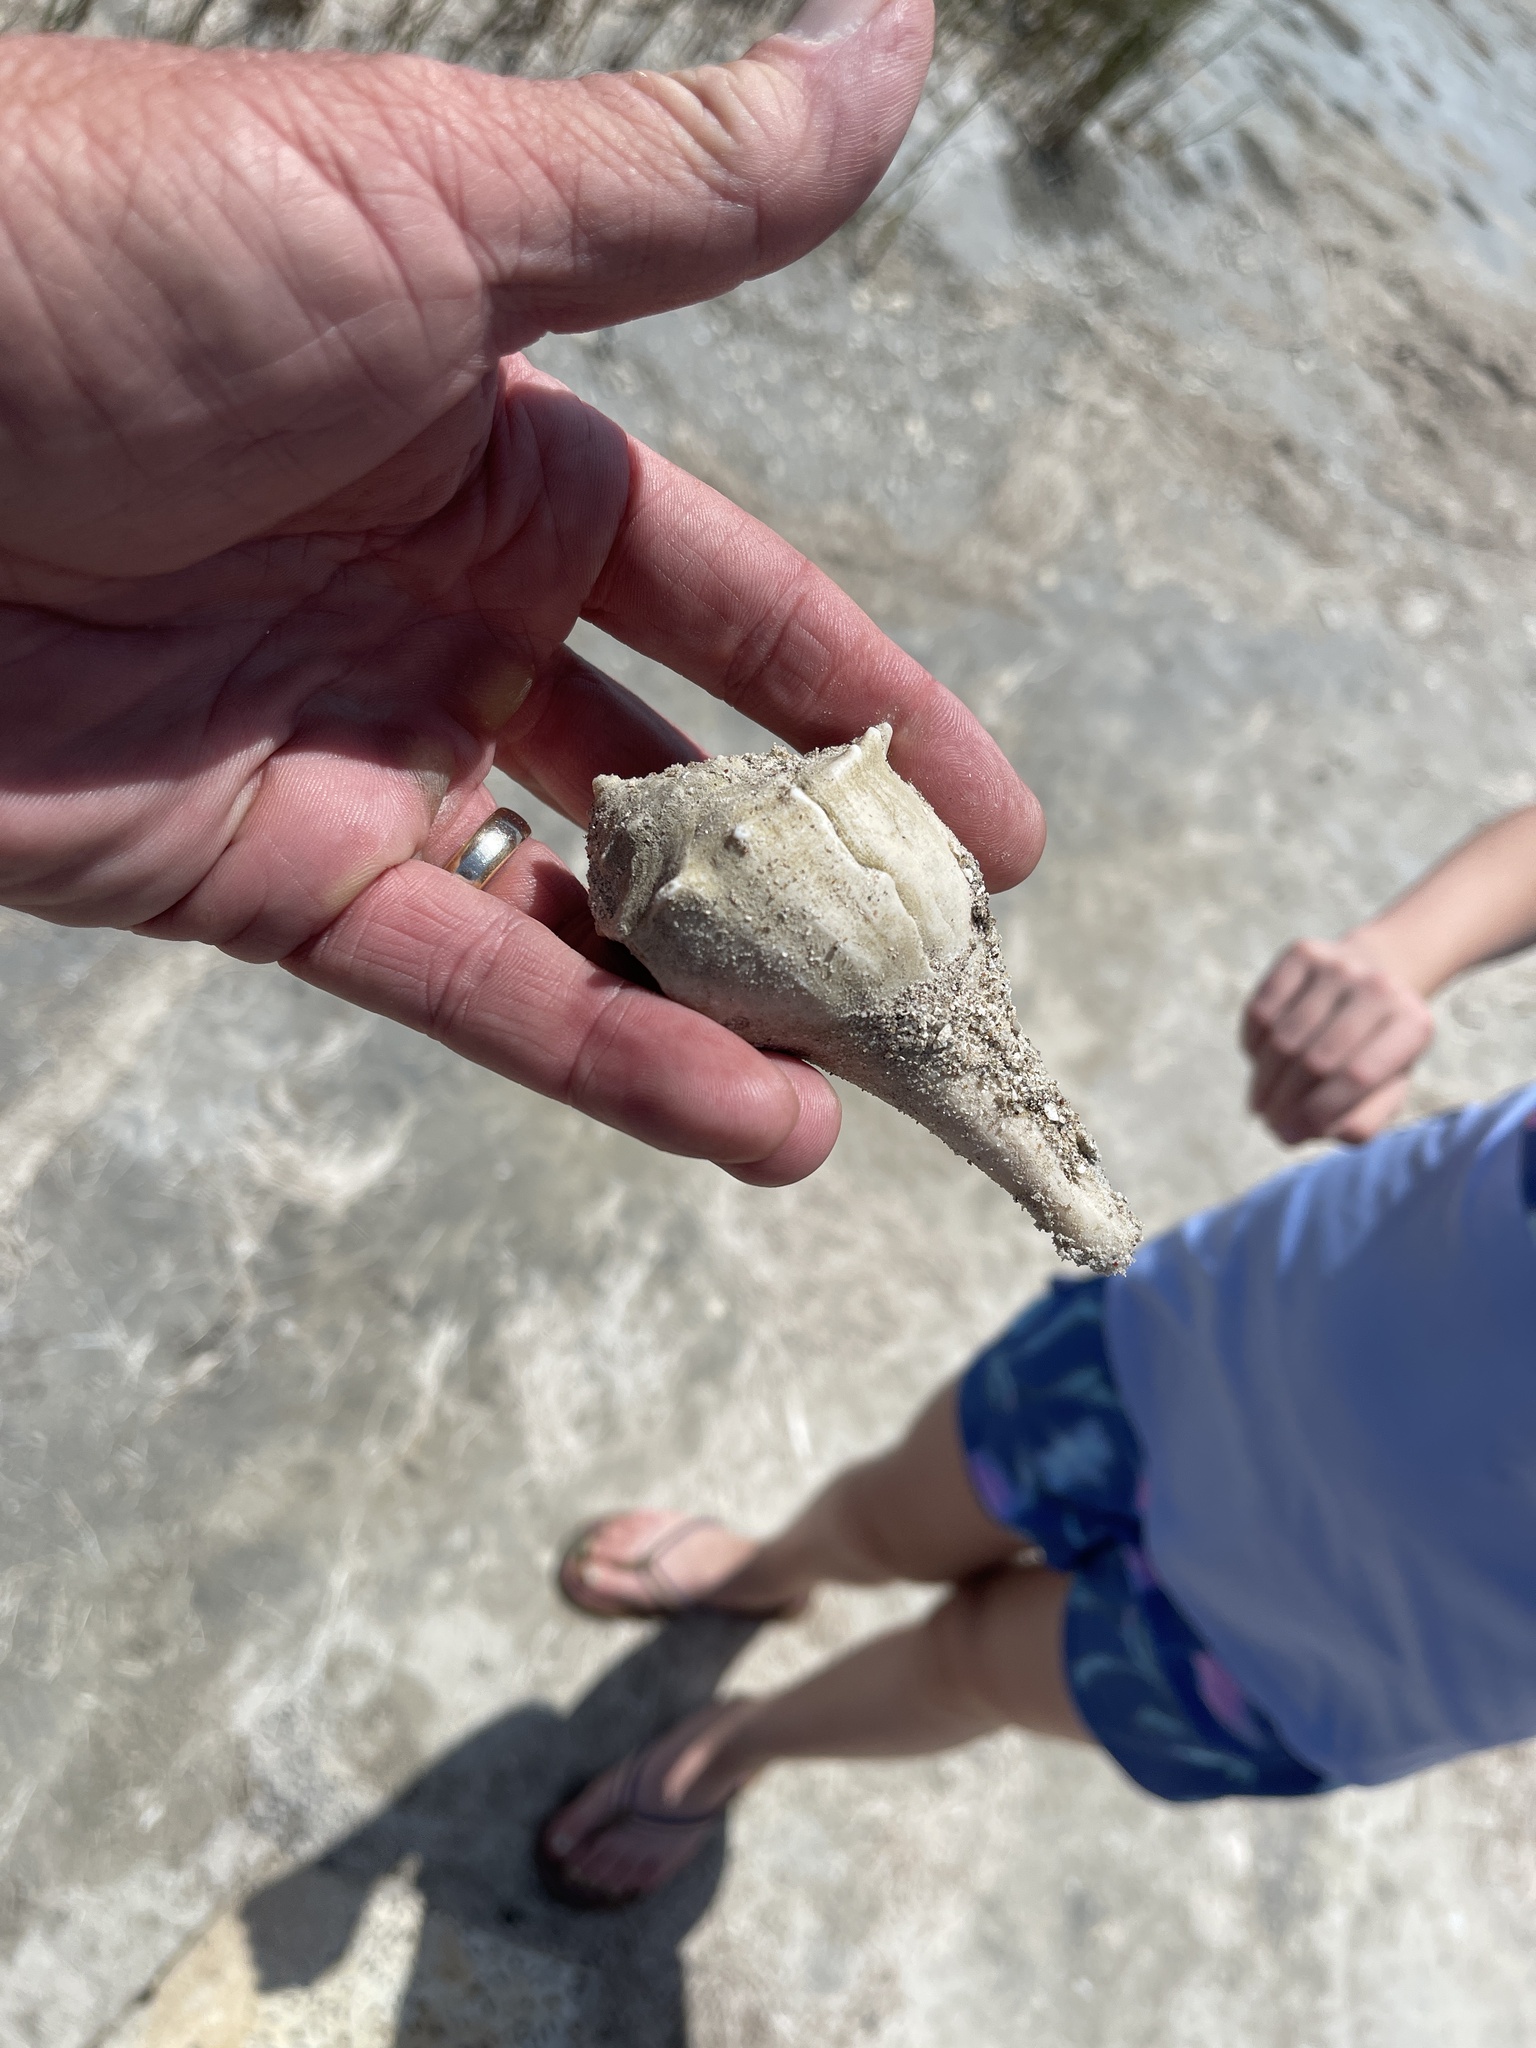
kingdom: Animalia
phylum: Mollusca
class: Gastropoda
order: Neogastropoda
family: Busyconidae
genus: Sinistrofulgur
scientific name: Sinistrofulgur pulleyi
